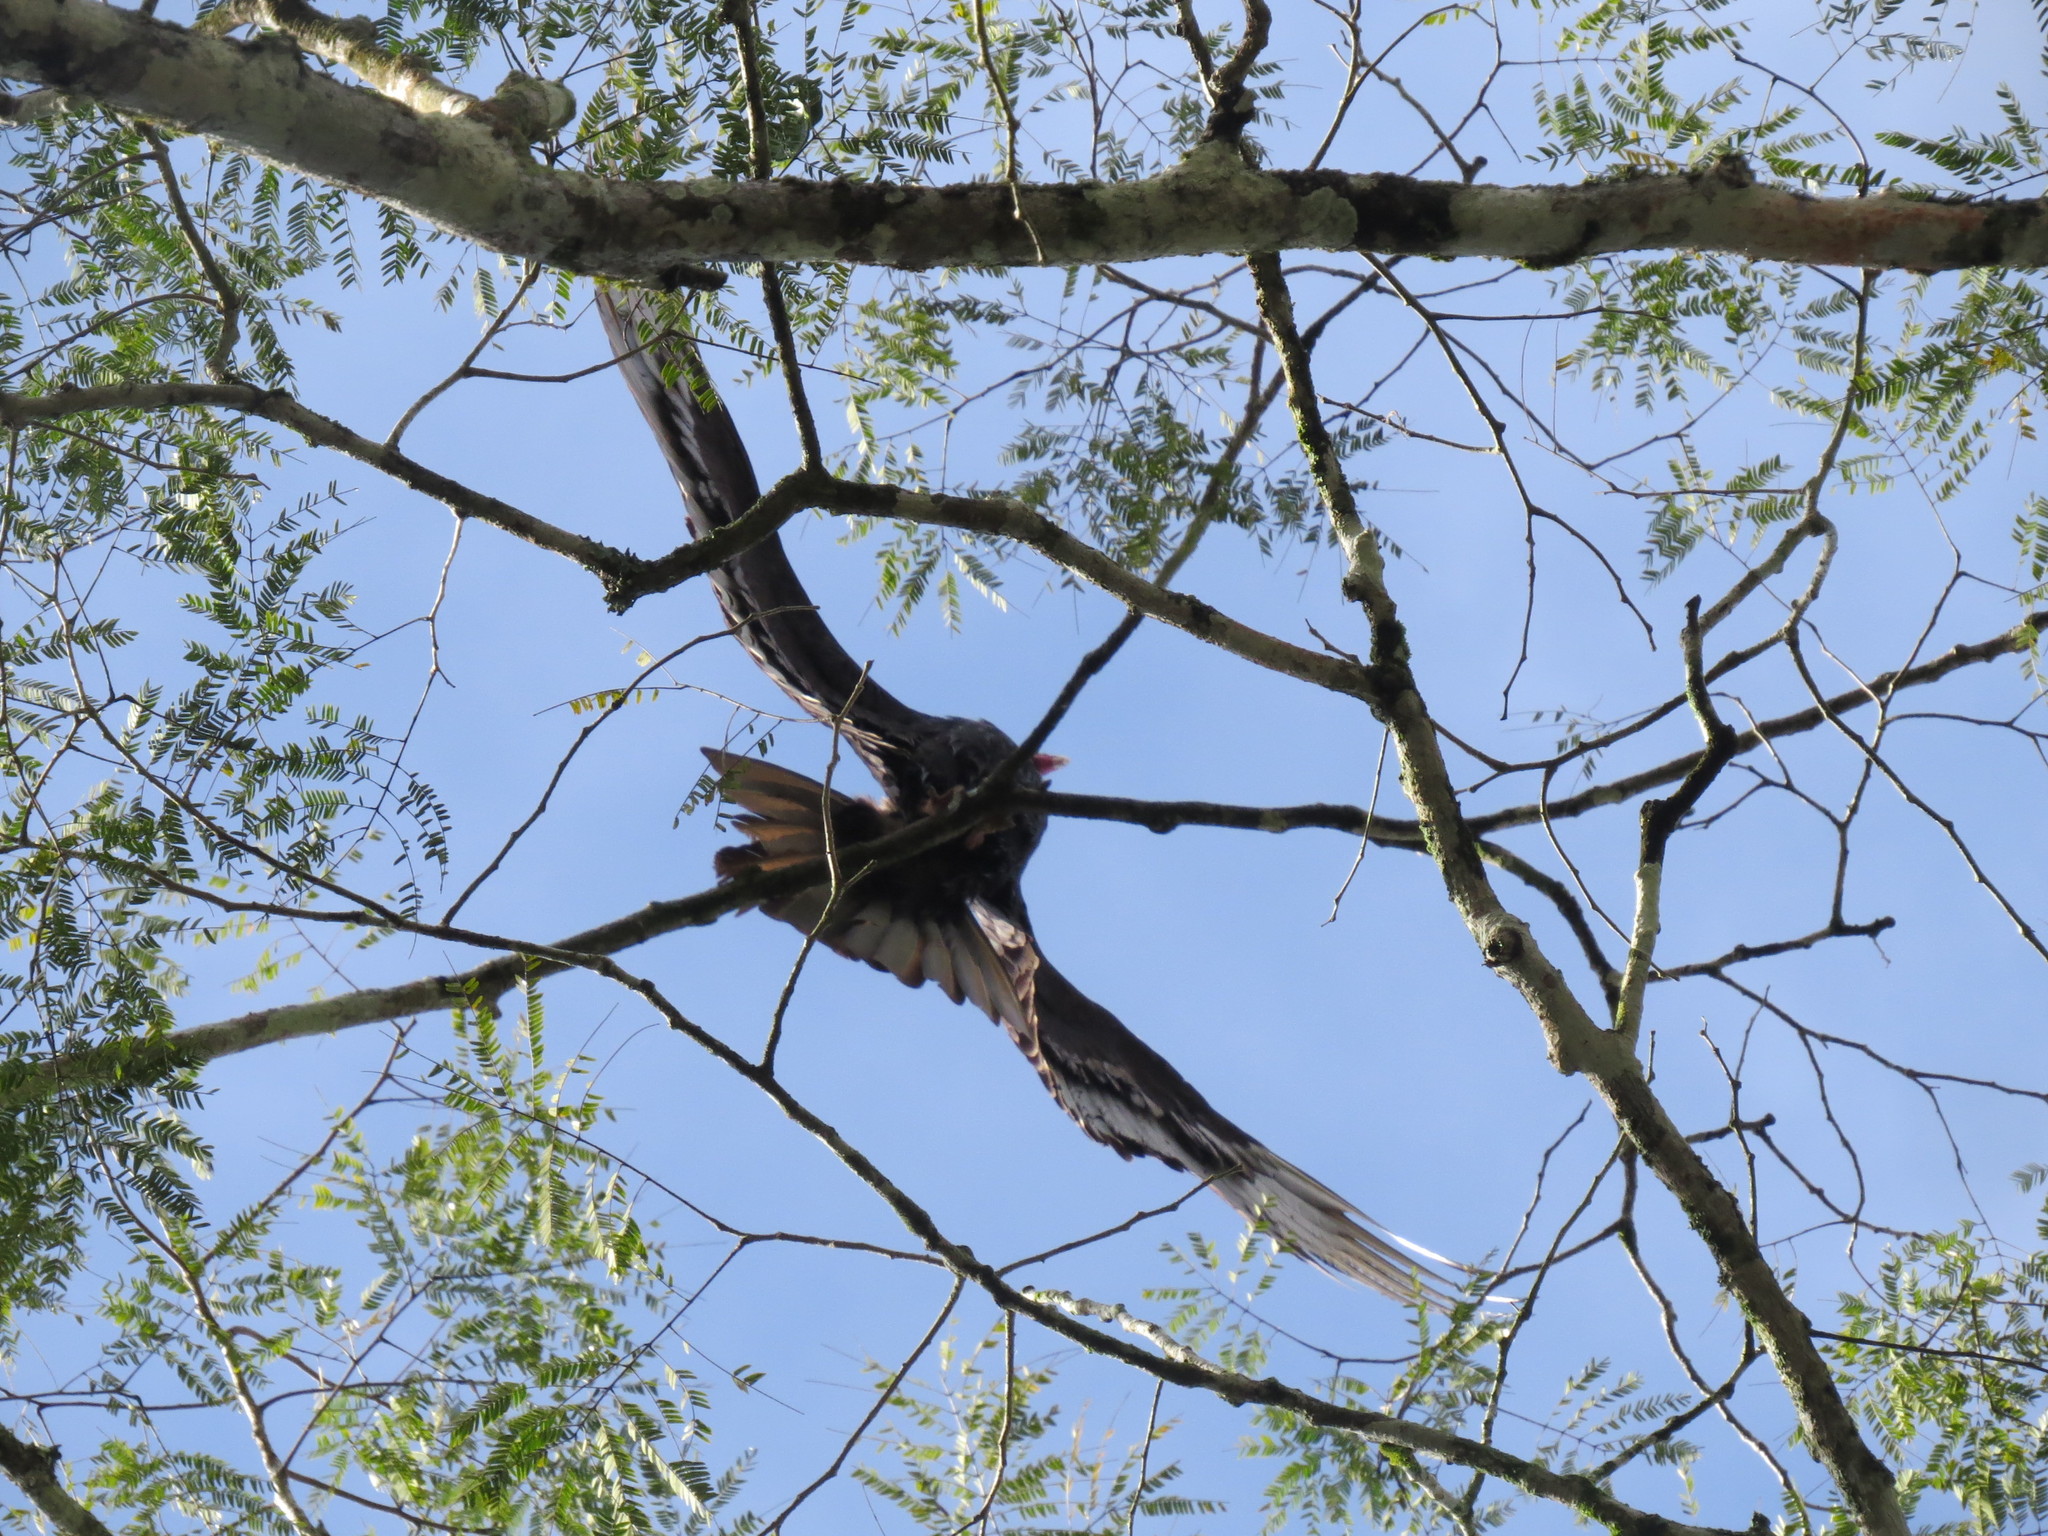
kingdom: Animalia
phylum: Chordata
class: Aves
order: Accipitriformes
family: Cathartidae
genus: Cathartes
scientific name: Cathartes aura
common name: Turkey vulture
